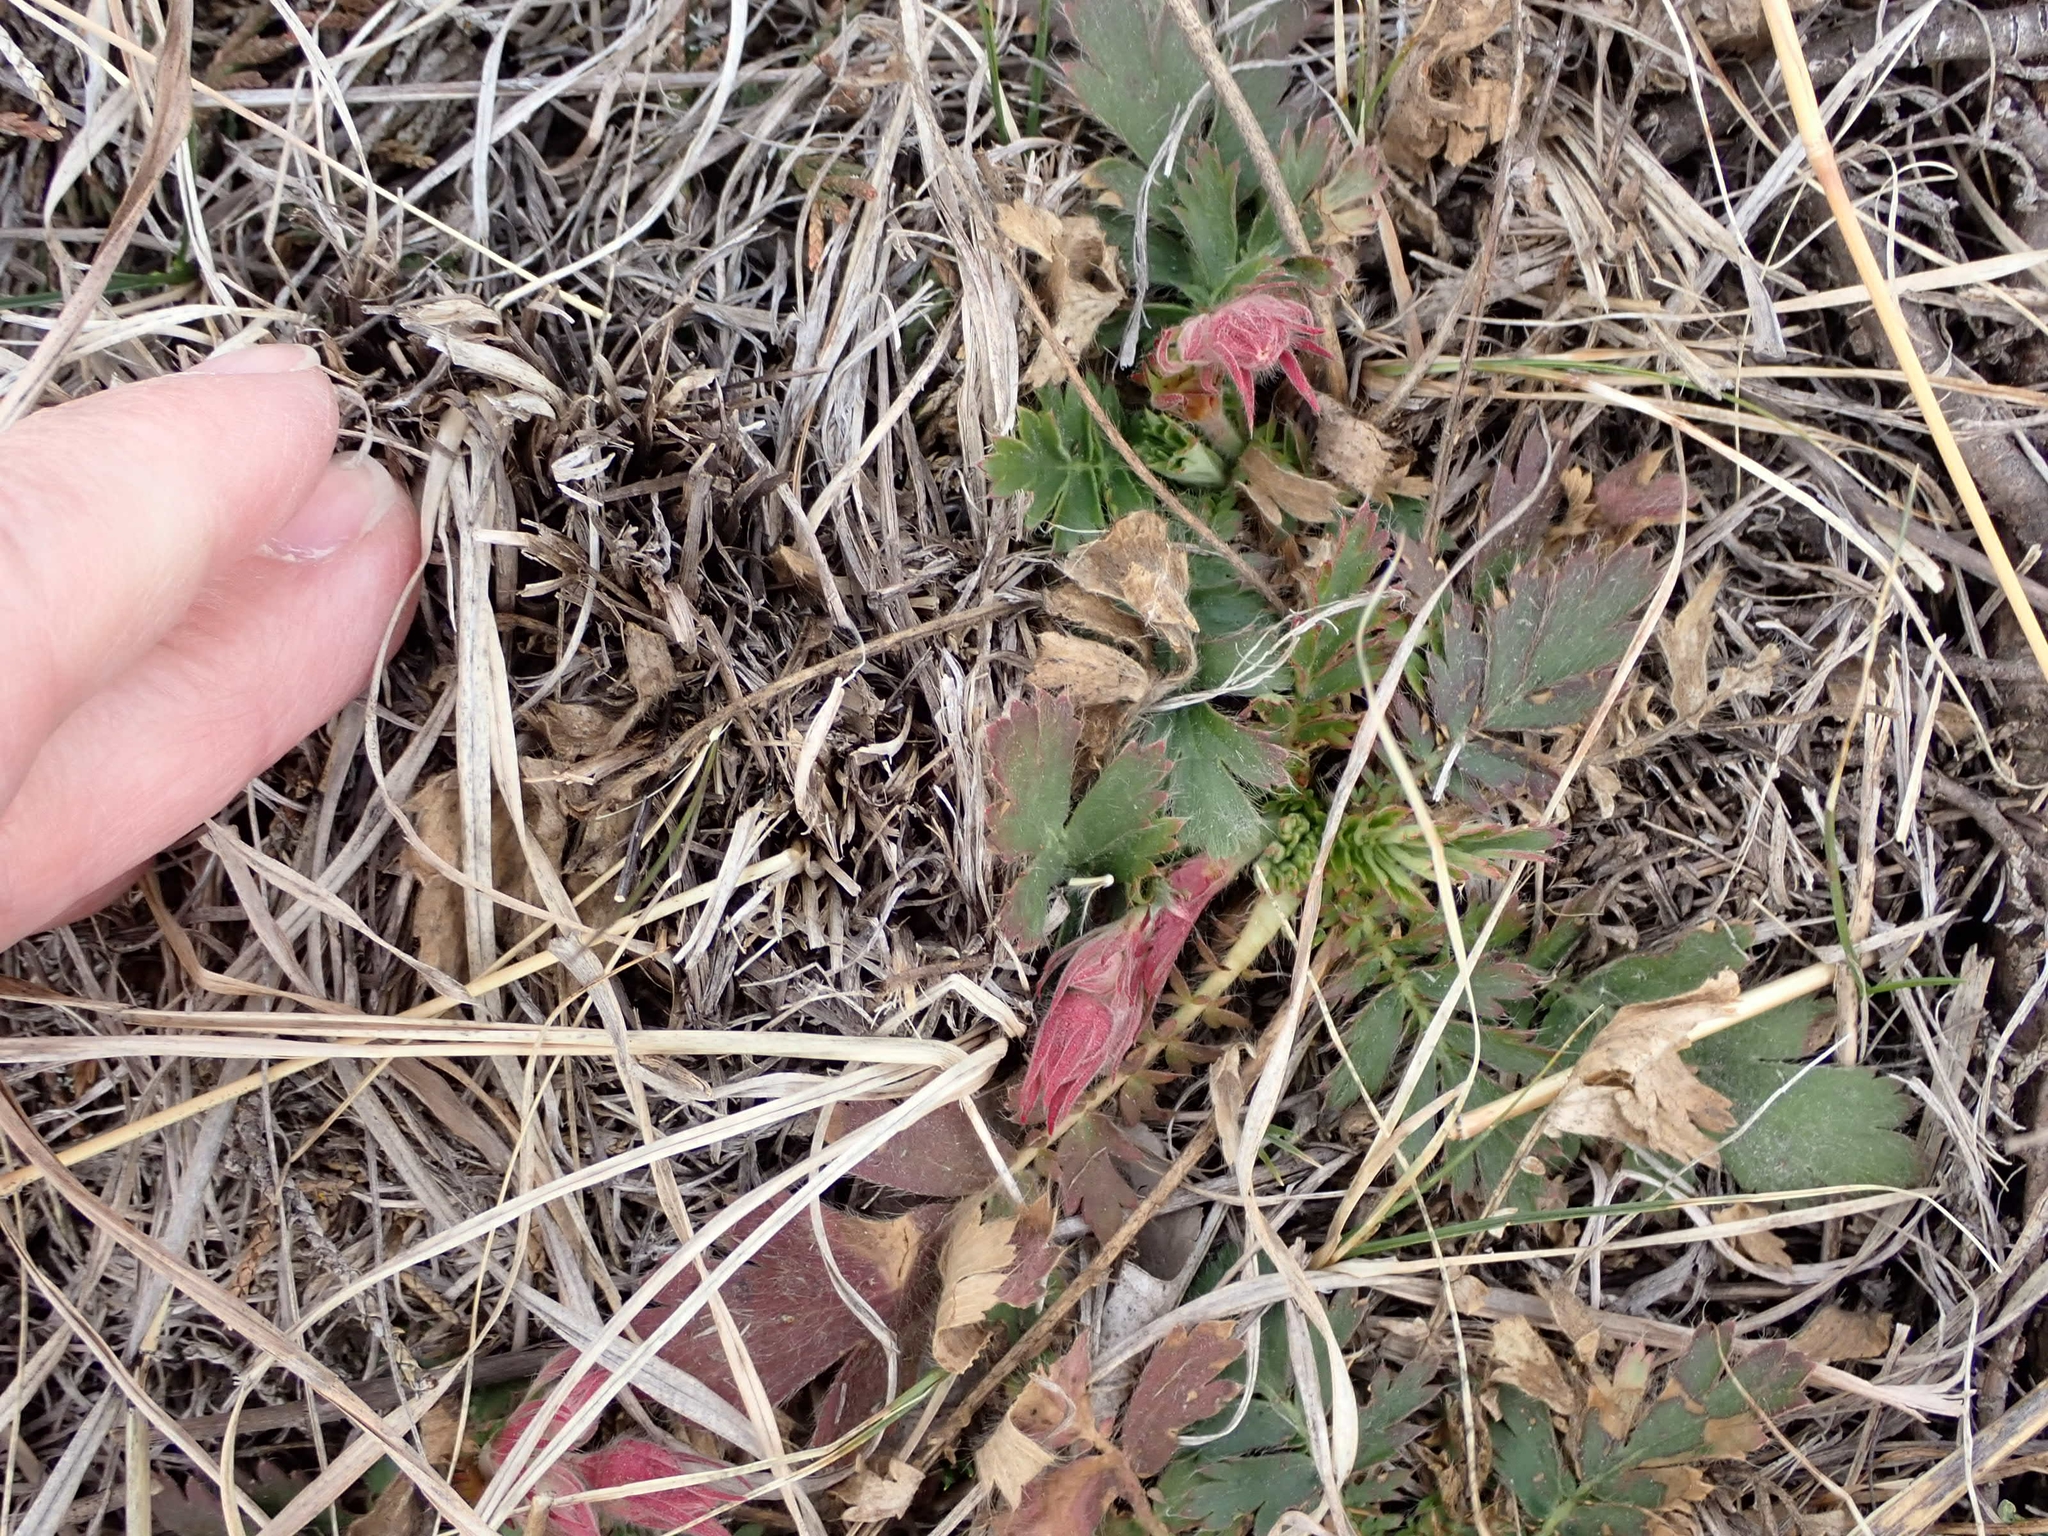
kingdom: Plantae
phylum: Tracheophyta
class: Magnoliopsida
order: Rosales
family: Rosaceae
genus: Geum
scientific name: Geum triflorum
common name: Old man's whiskers
